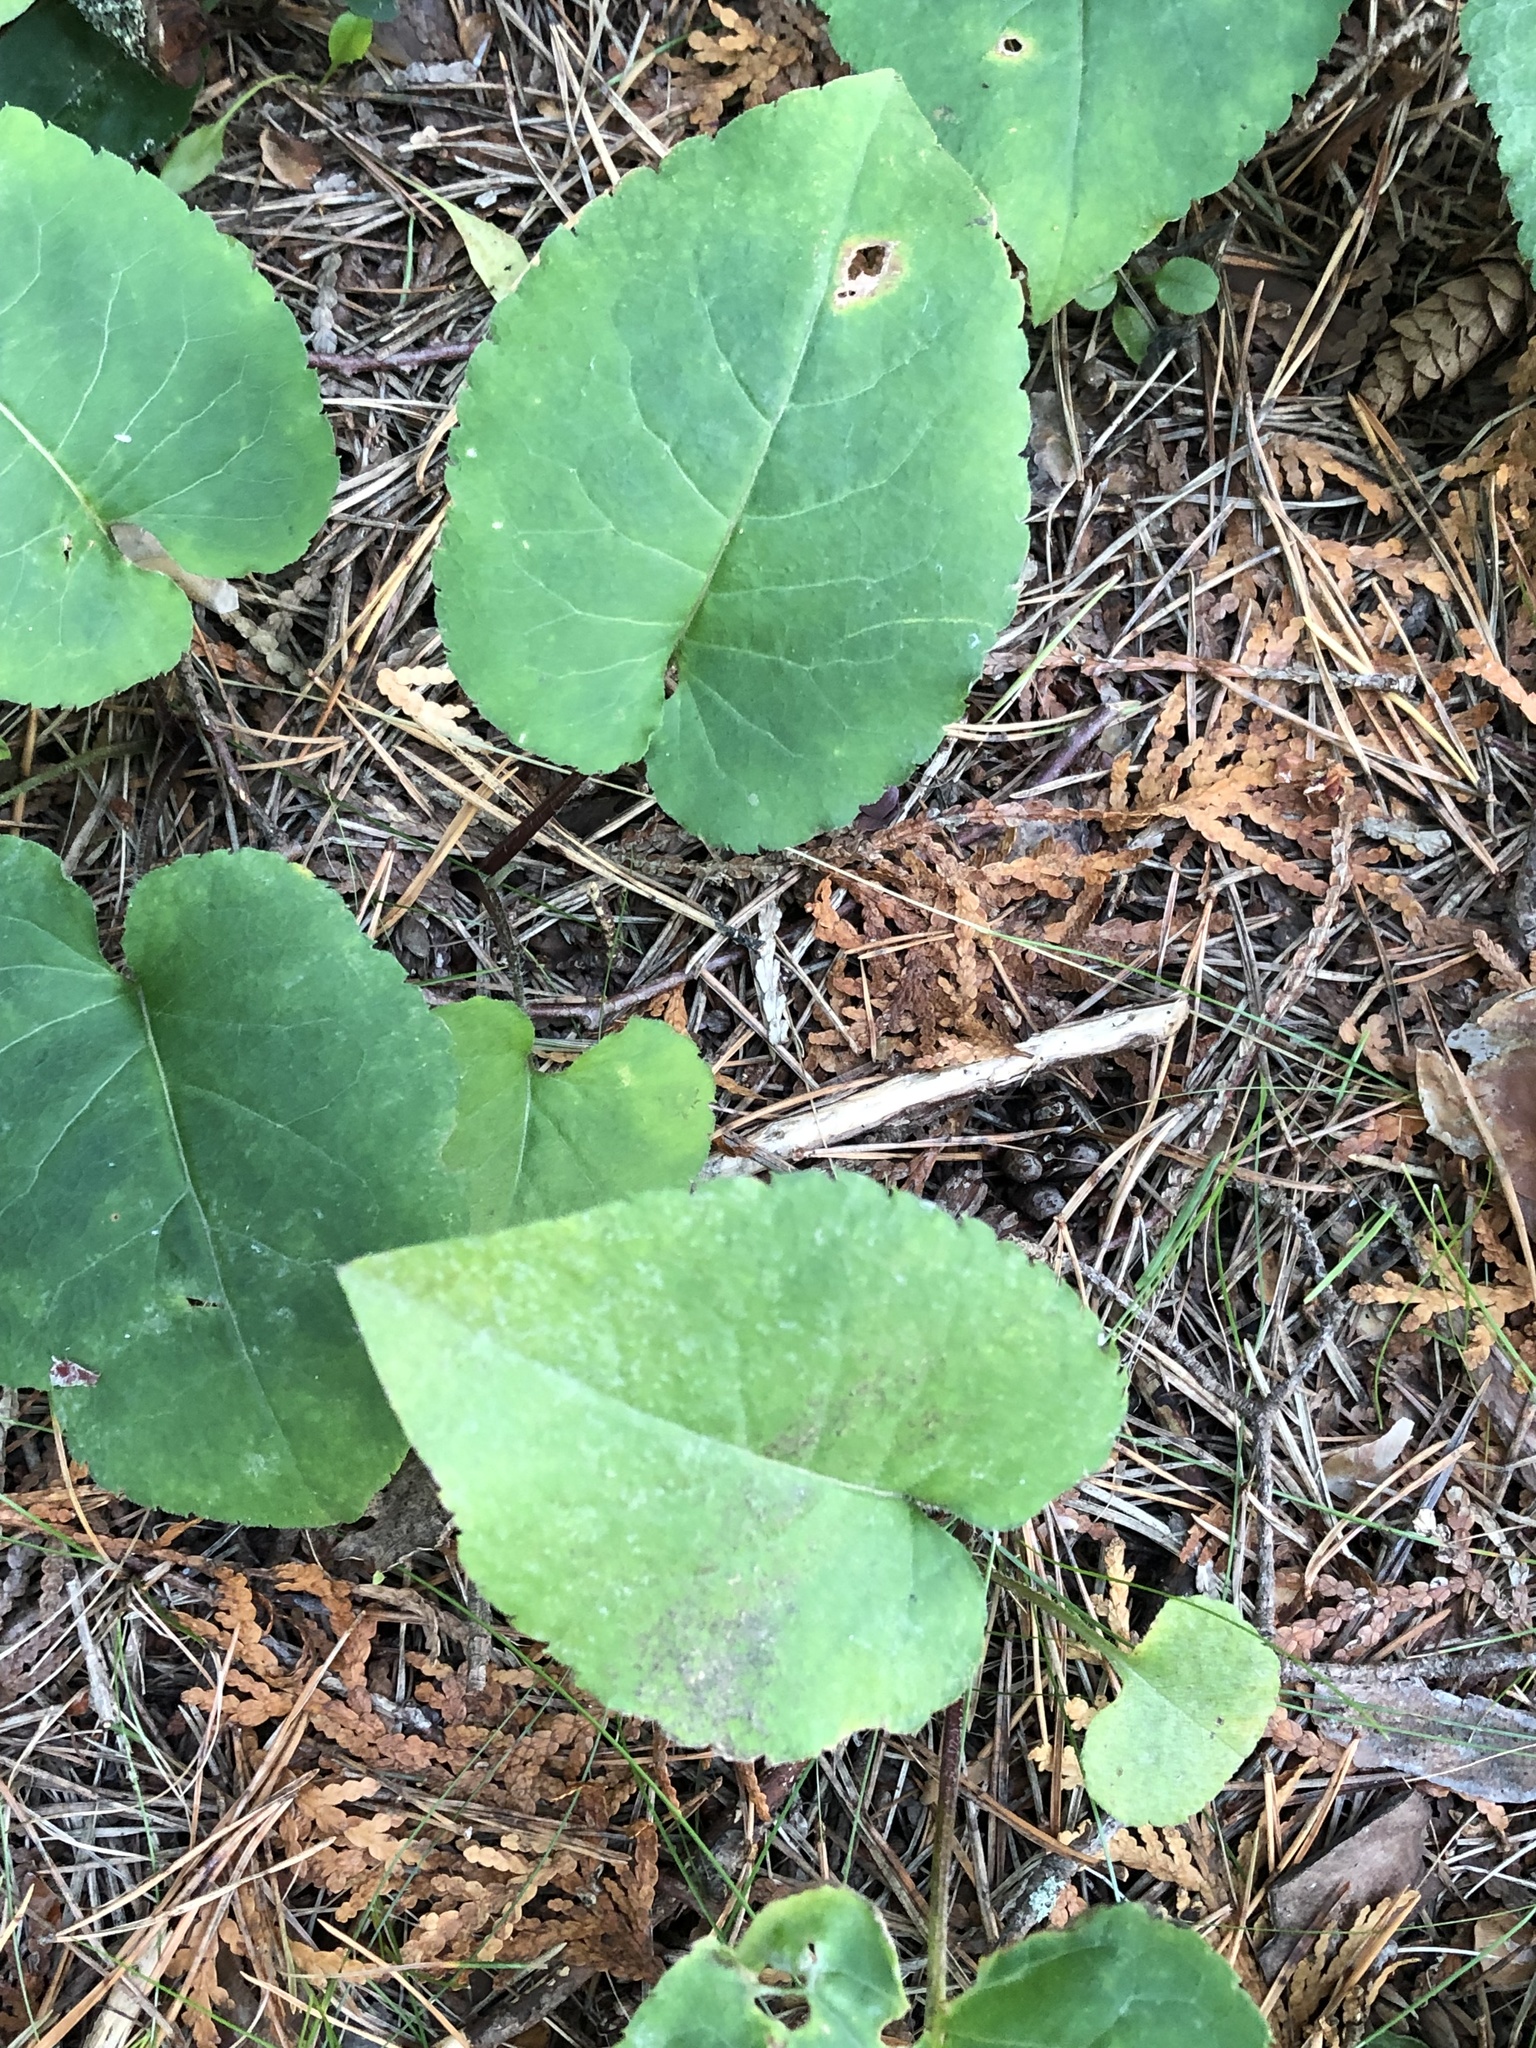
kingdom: Plantae
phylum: Tracheophyta
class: Magnoliopsida
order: Asterales
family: Asteraceae
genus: Eurybia
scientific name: Eurybia macrophylla
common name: Big-leaved aster
